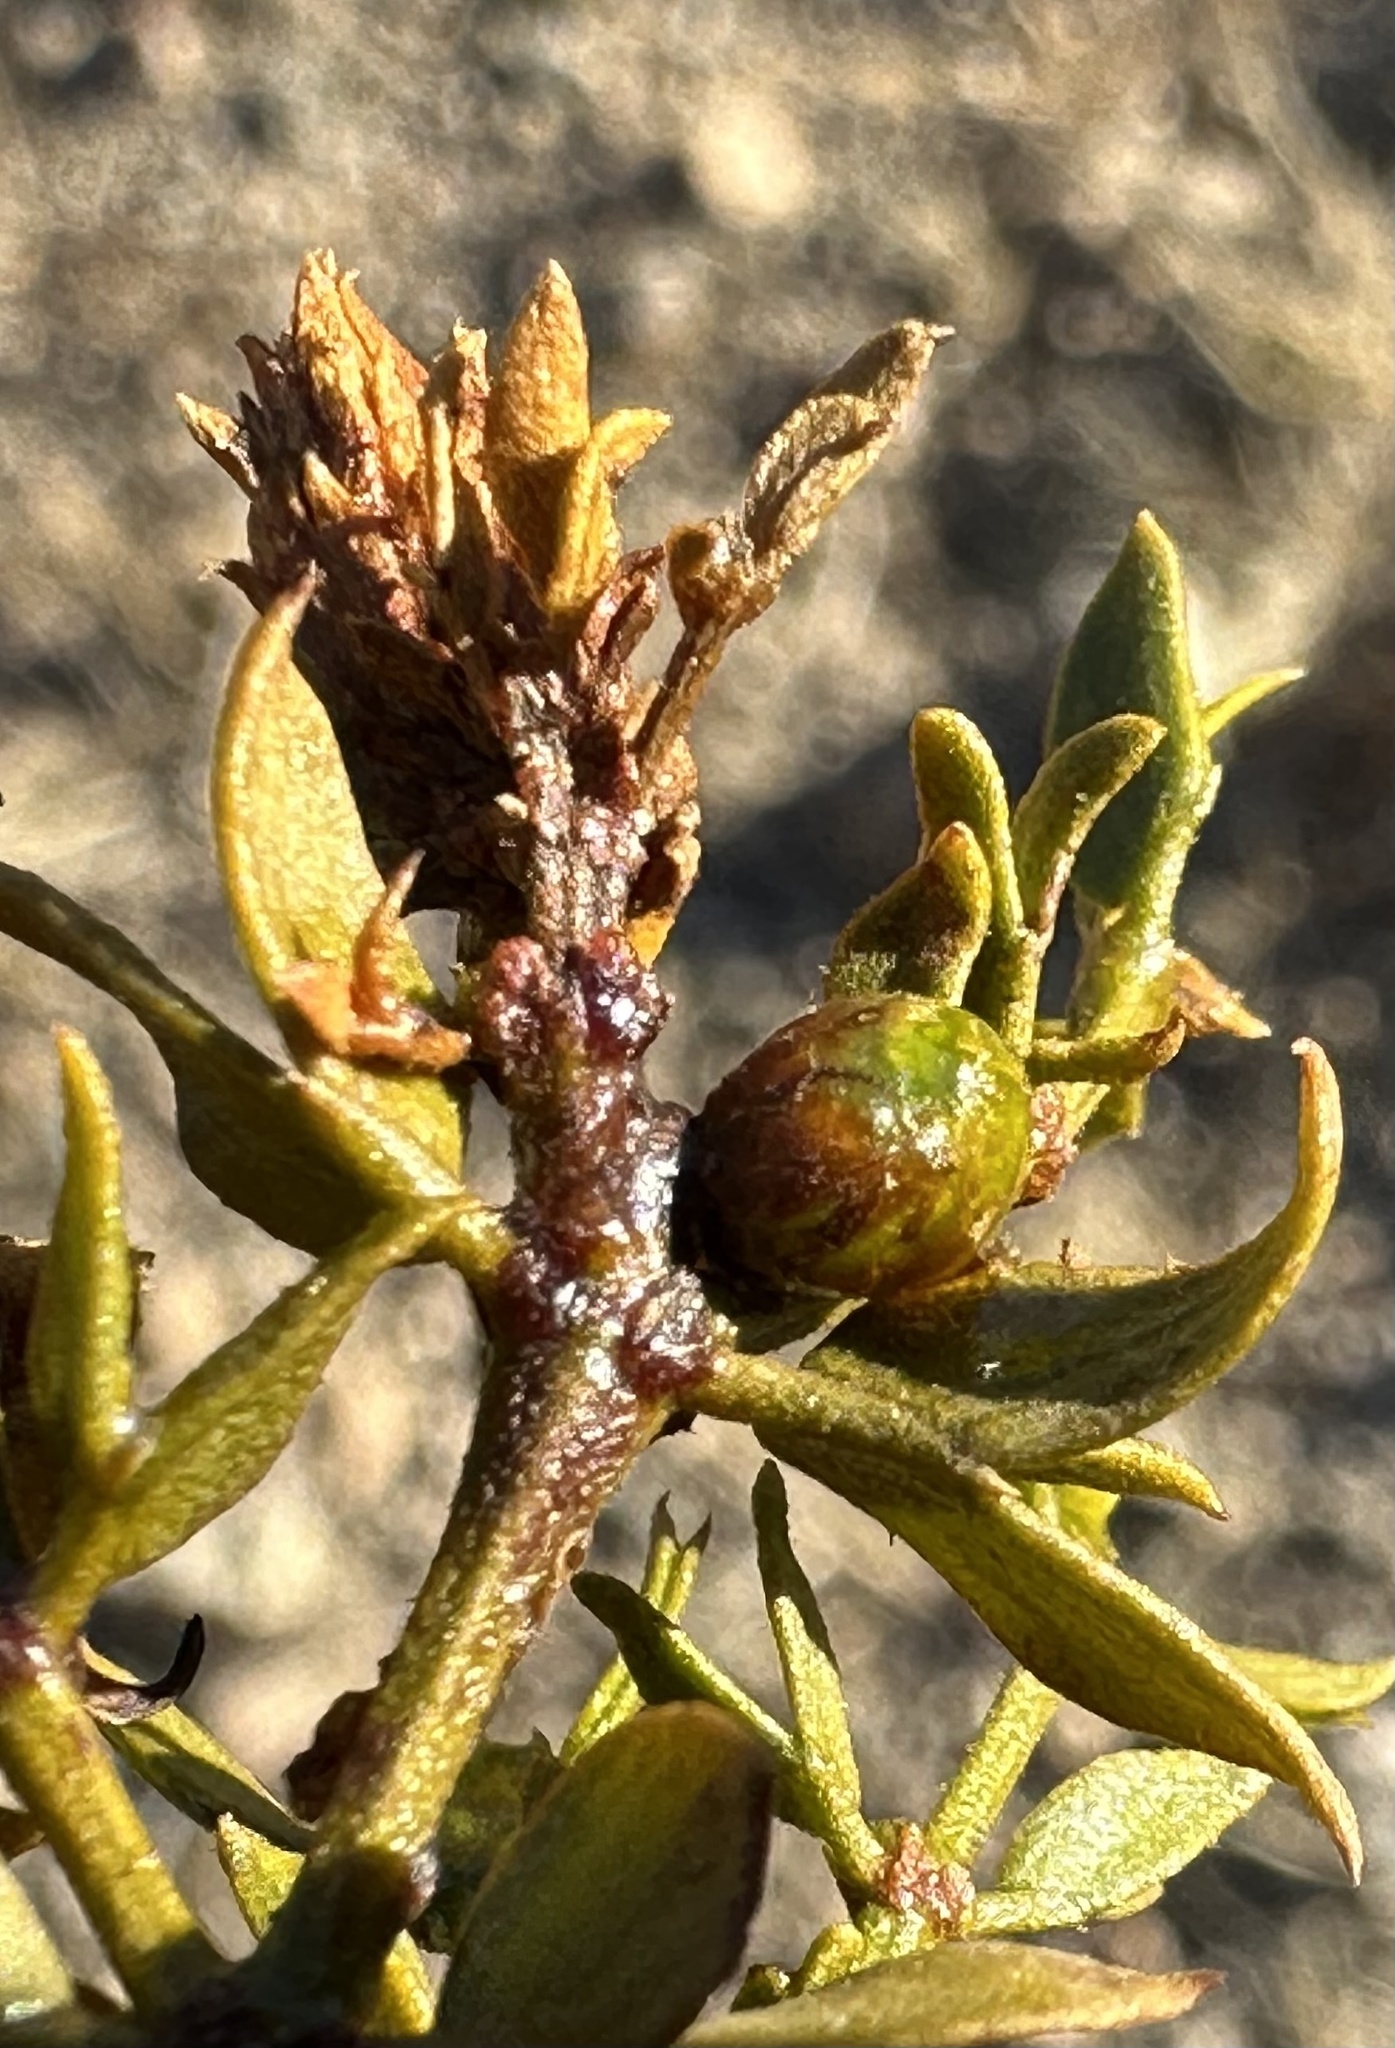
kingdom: Animalia
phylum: Arthropoda
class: Insecta
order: Diptera
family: Cecidomyiidae
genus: Asphondylia
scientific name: Asphondylia resinosa
